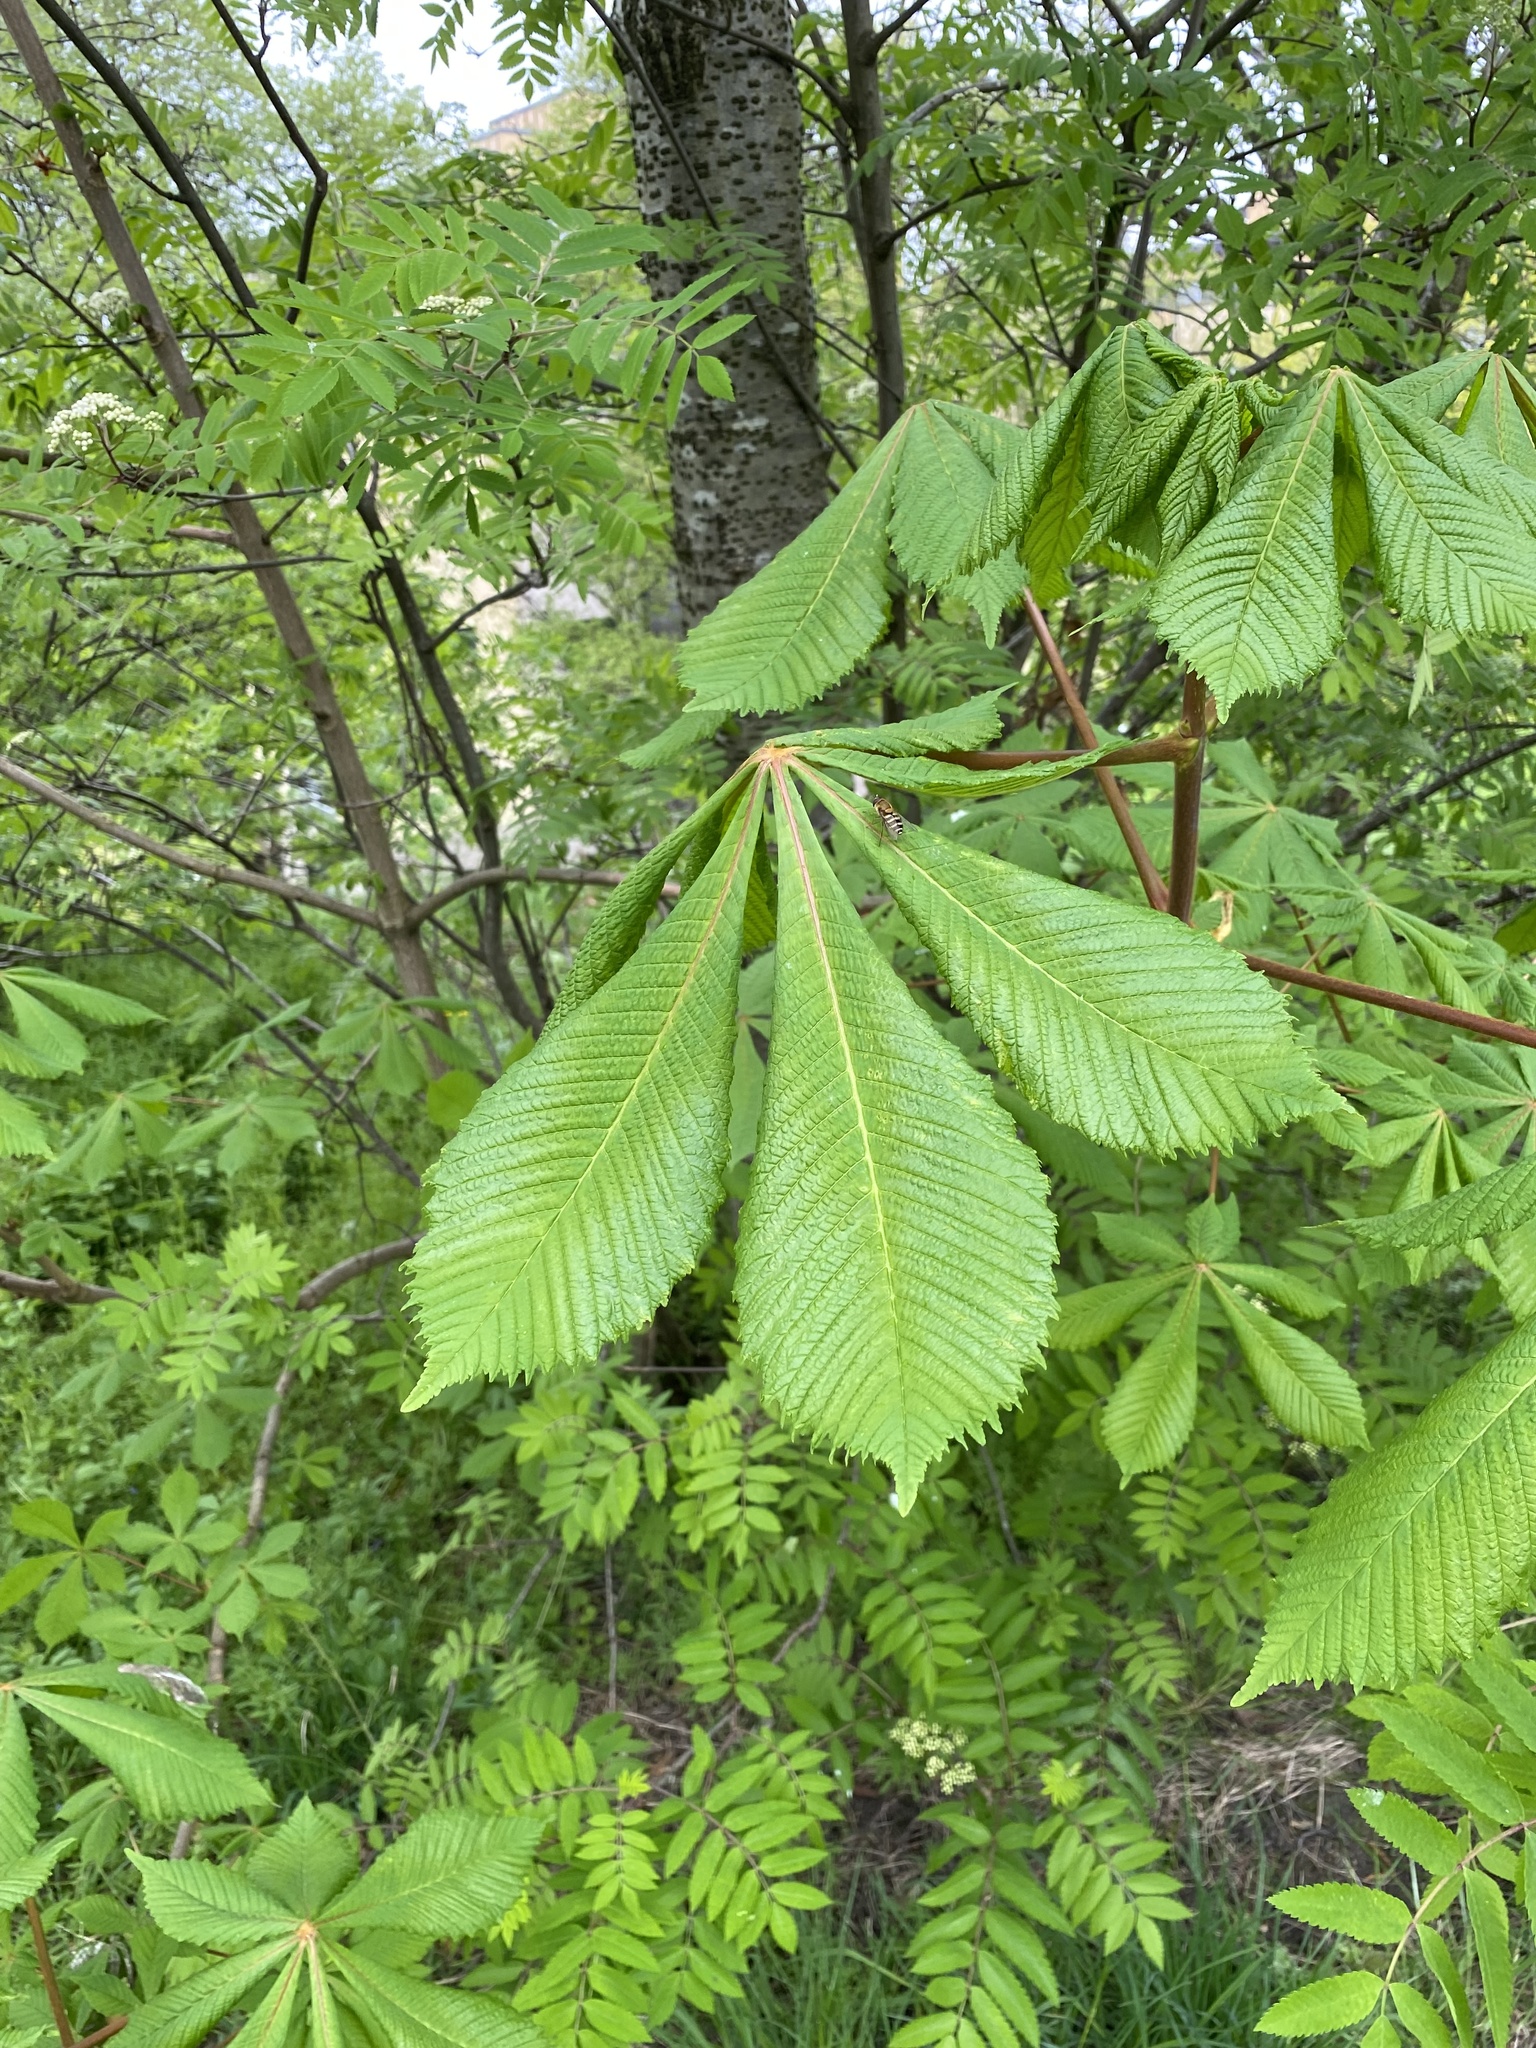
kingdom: Plantae
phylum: Tracheophyta
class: Magnoliopsida
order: Sapindales
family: Sapindaceae
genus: Aesculus
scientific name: Aesculus hippocastanum
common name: Horse-chestnut
